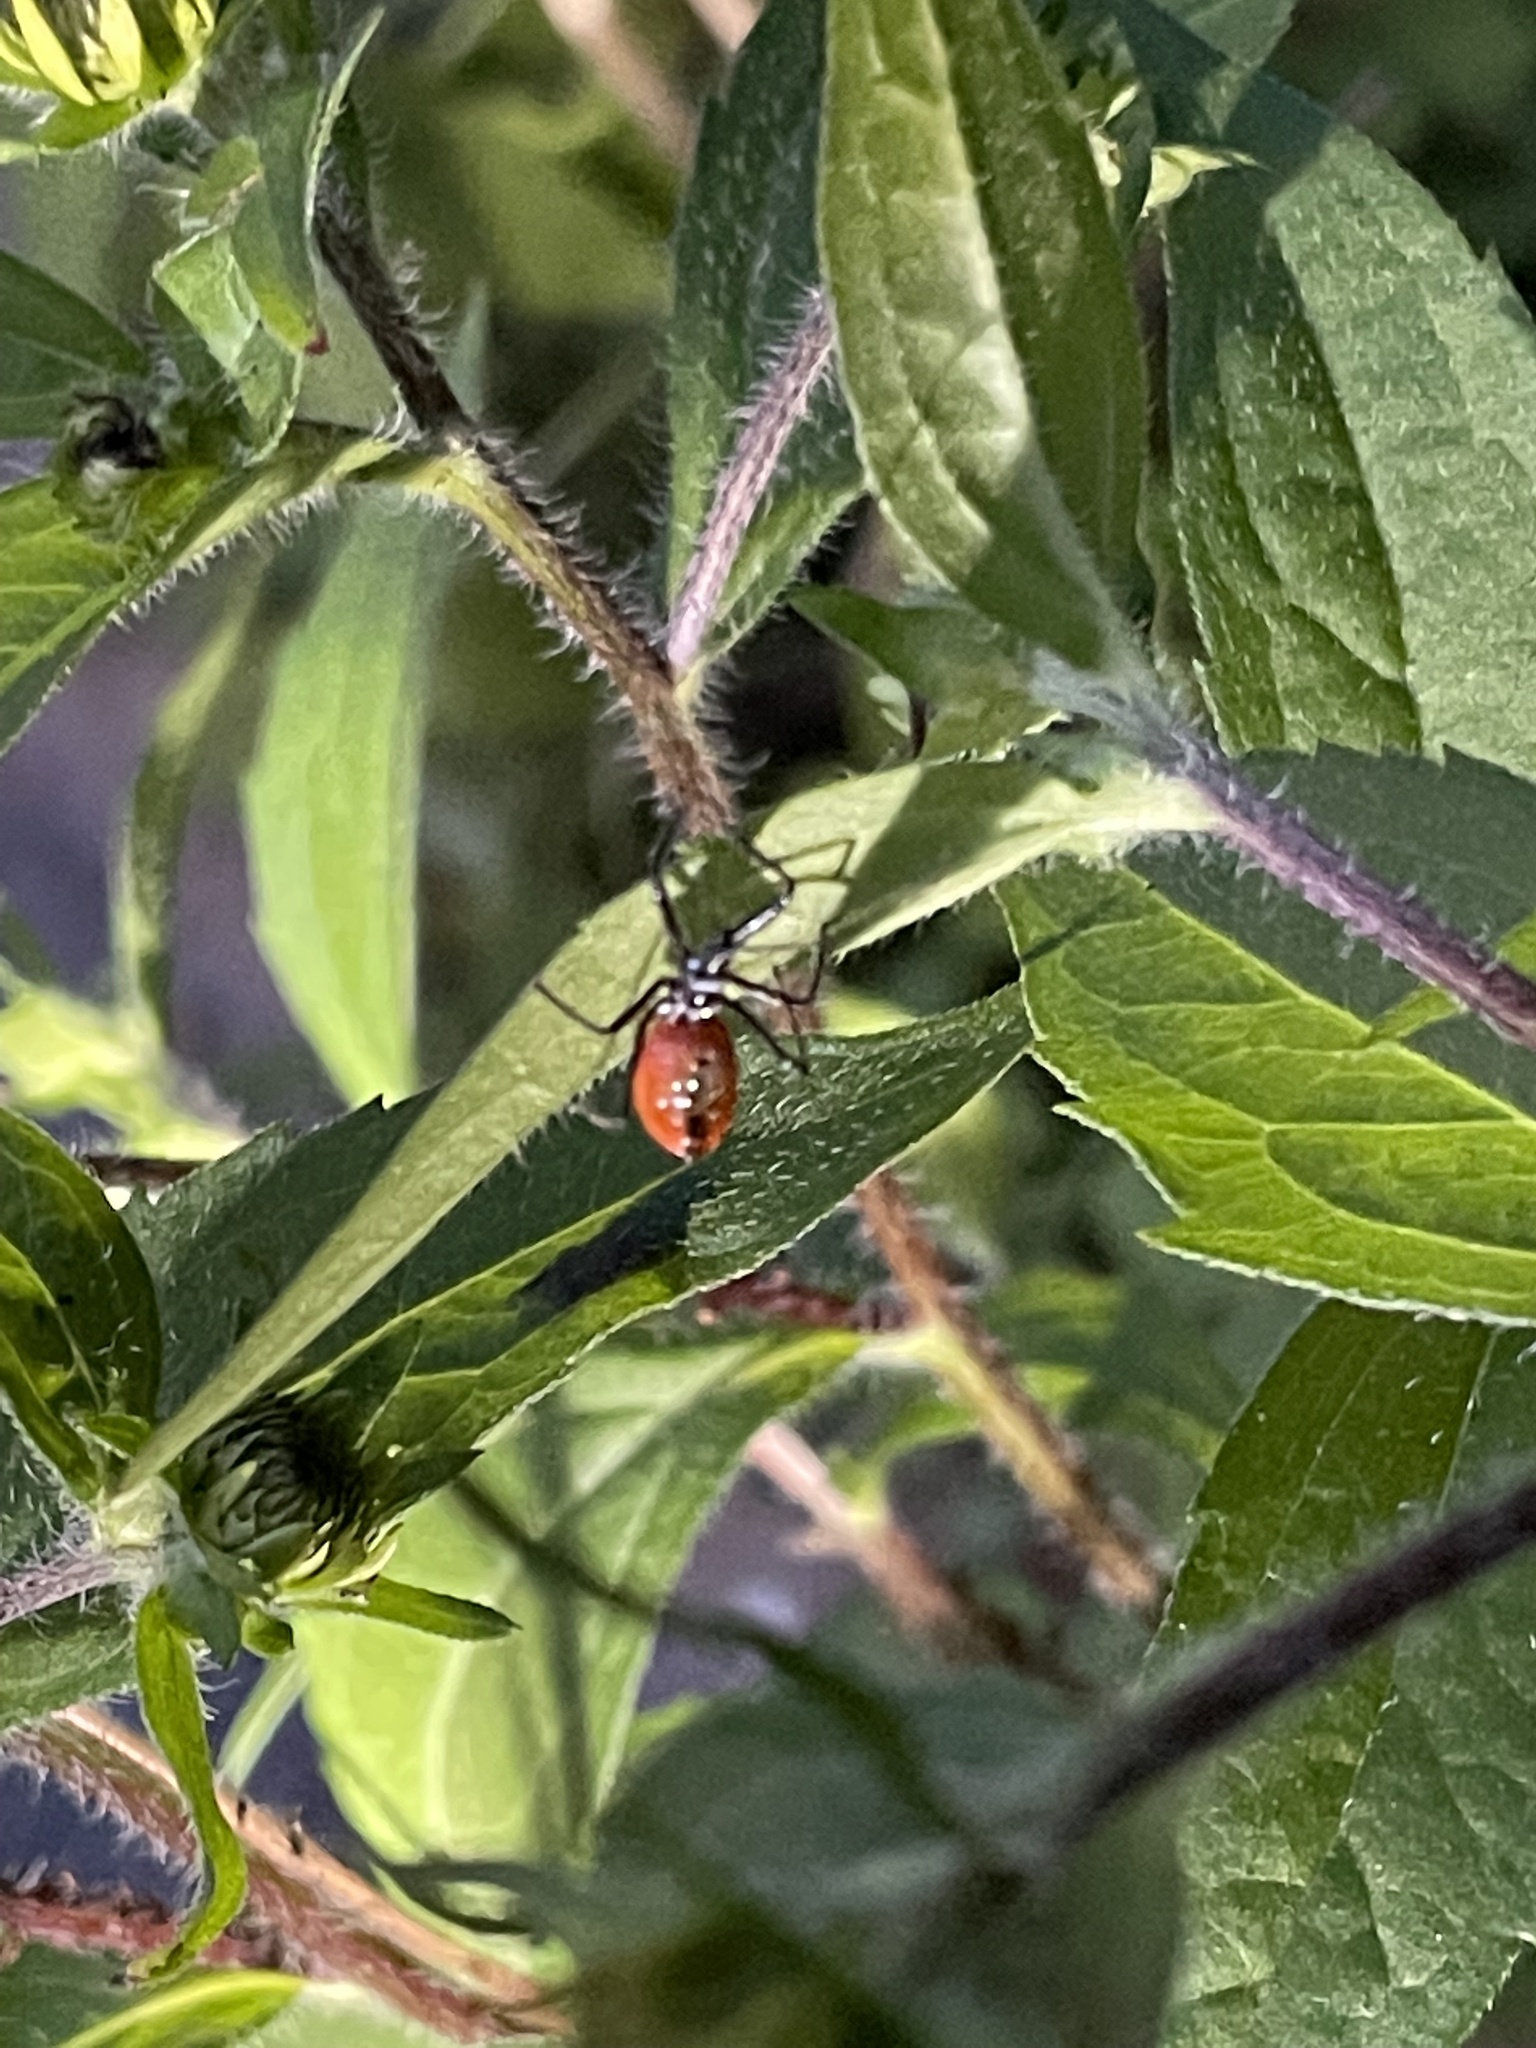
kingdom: Animalia
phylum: Arthropoda
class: Insecta
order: Hemiptera
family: Reduviidae
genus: Arilus
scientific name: Arilus cristatus
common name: North american wheel bug
